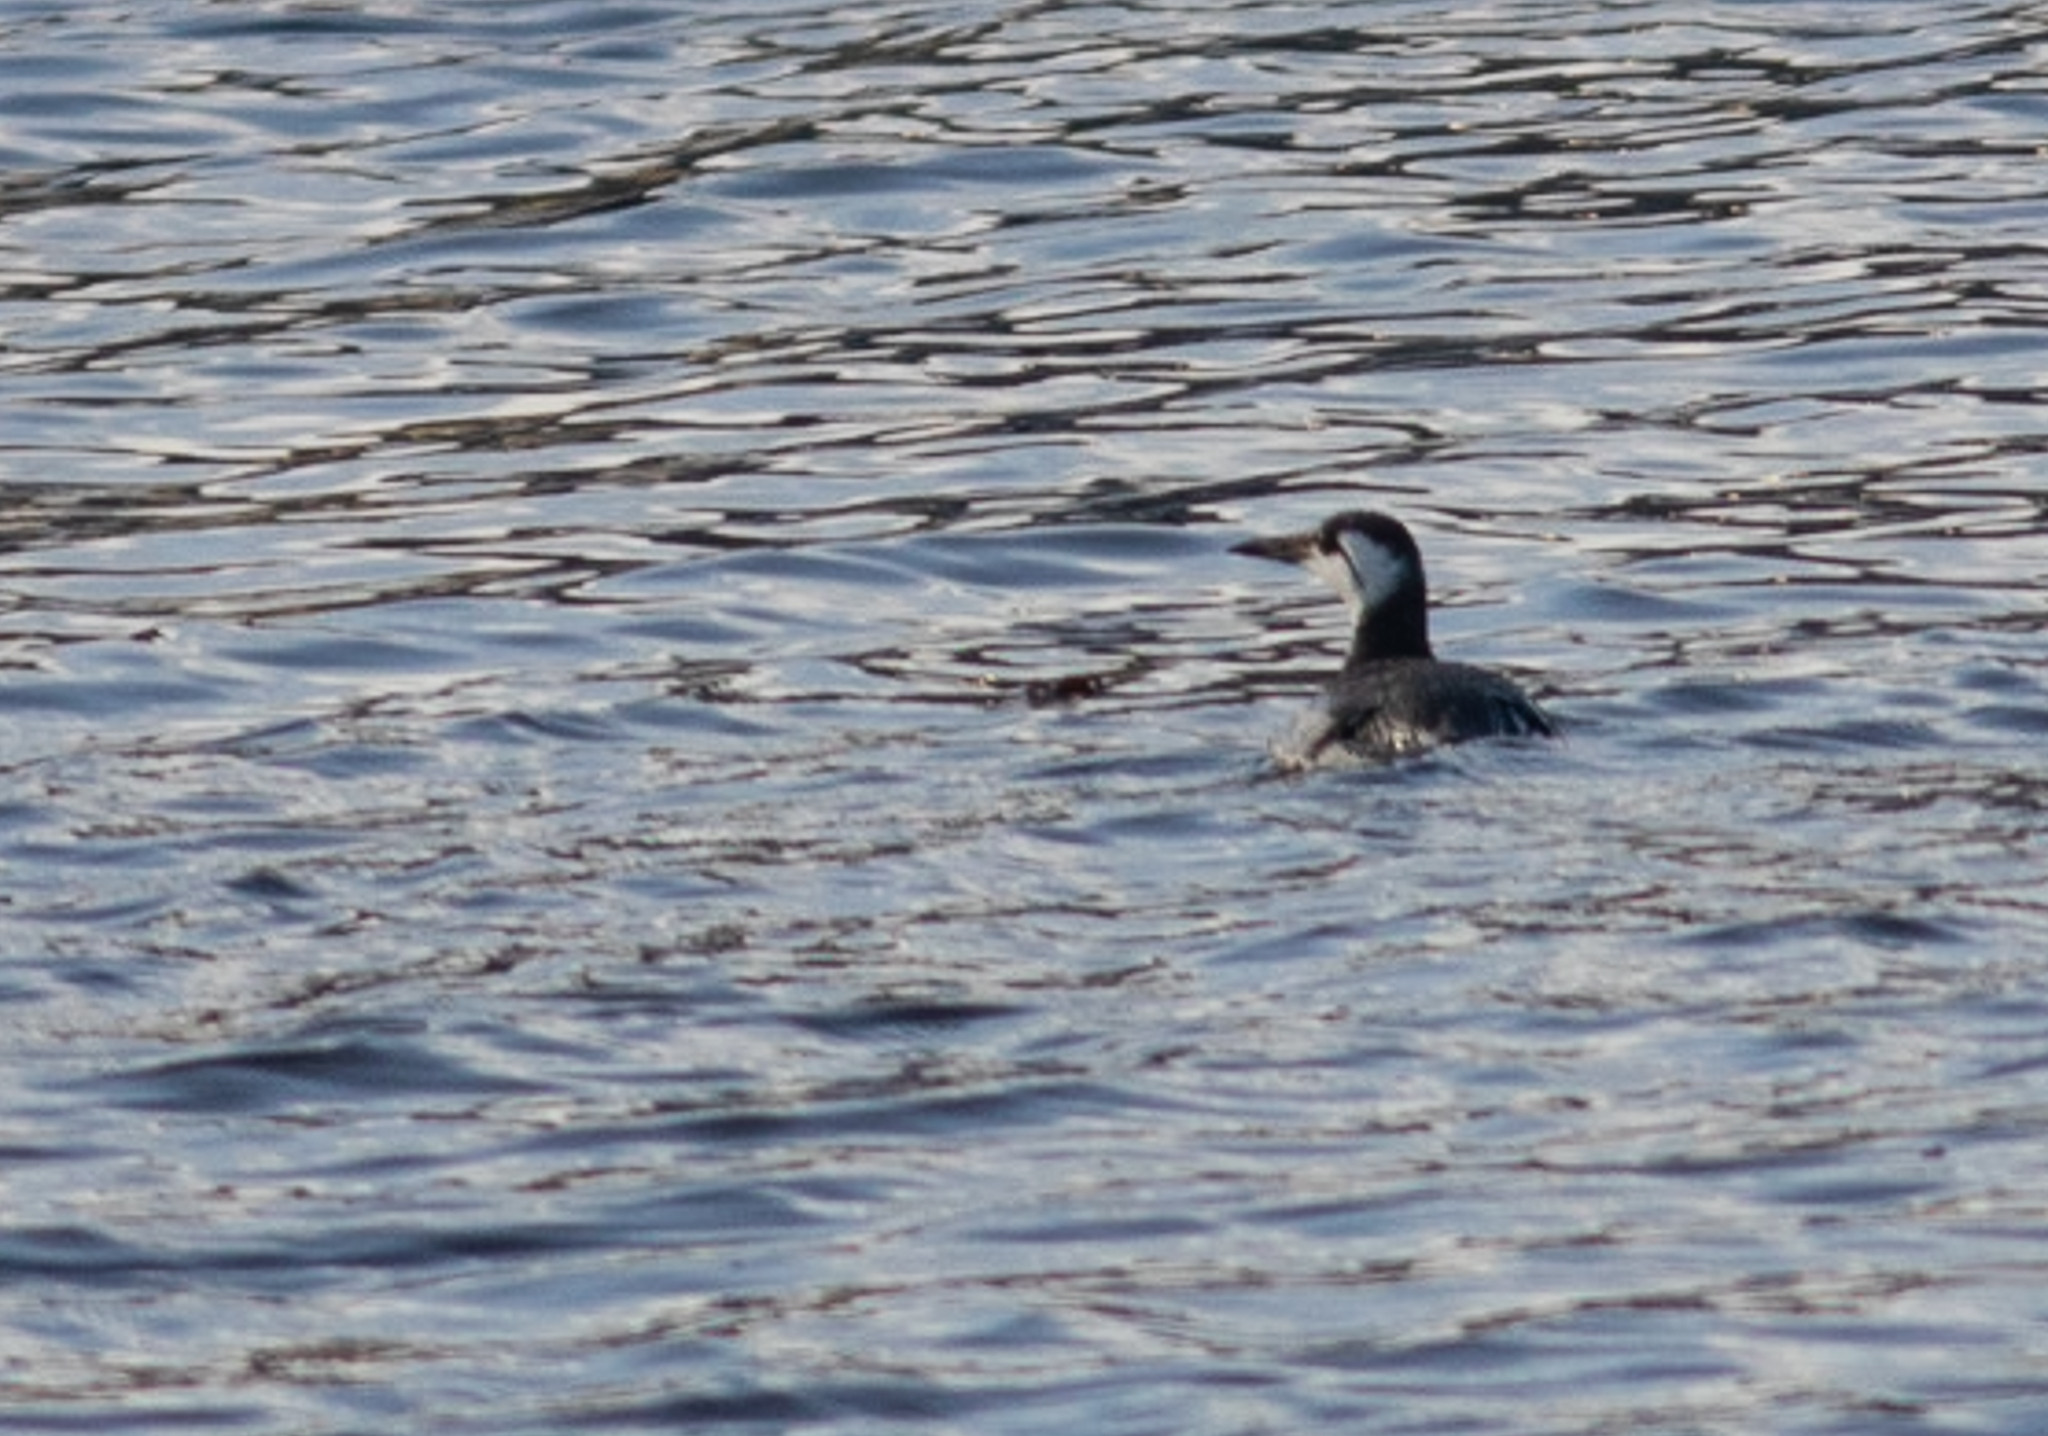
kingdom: Animalia
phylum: Chordata
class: Aves
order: Charadriiformes
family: Alcidae
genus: Uria
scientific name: Uria aalge
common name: Common murre
